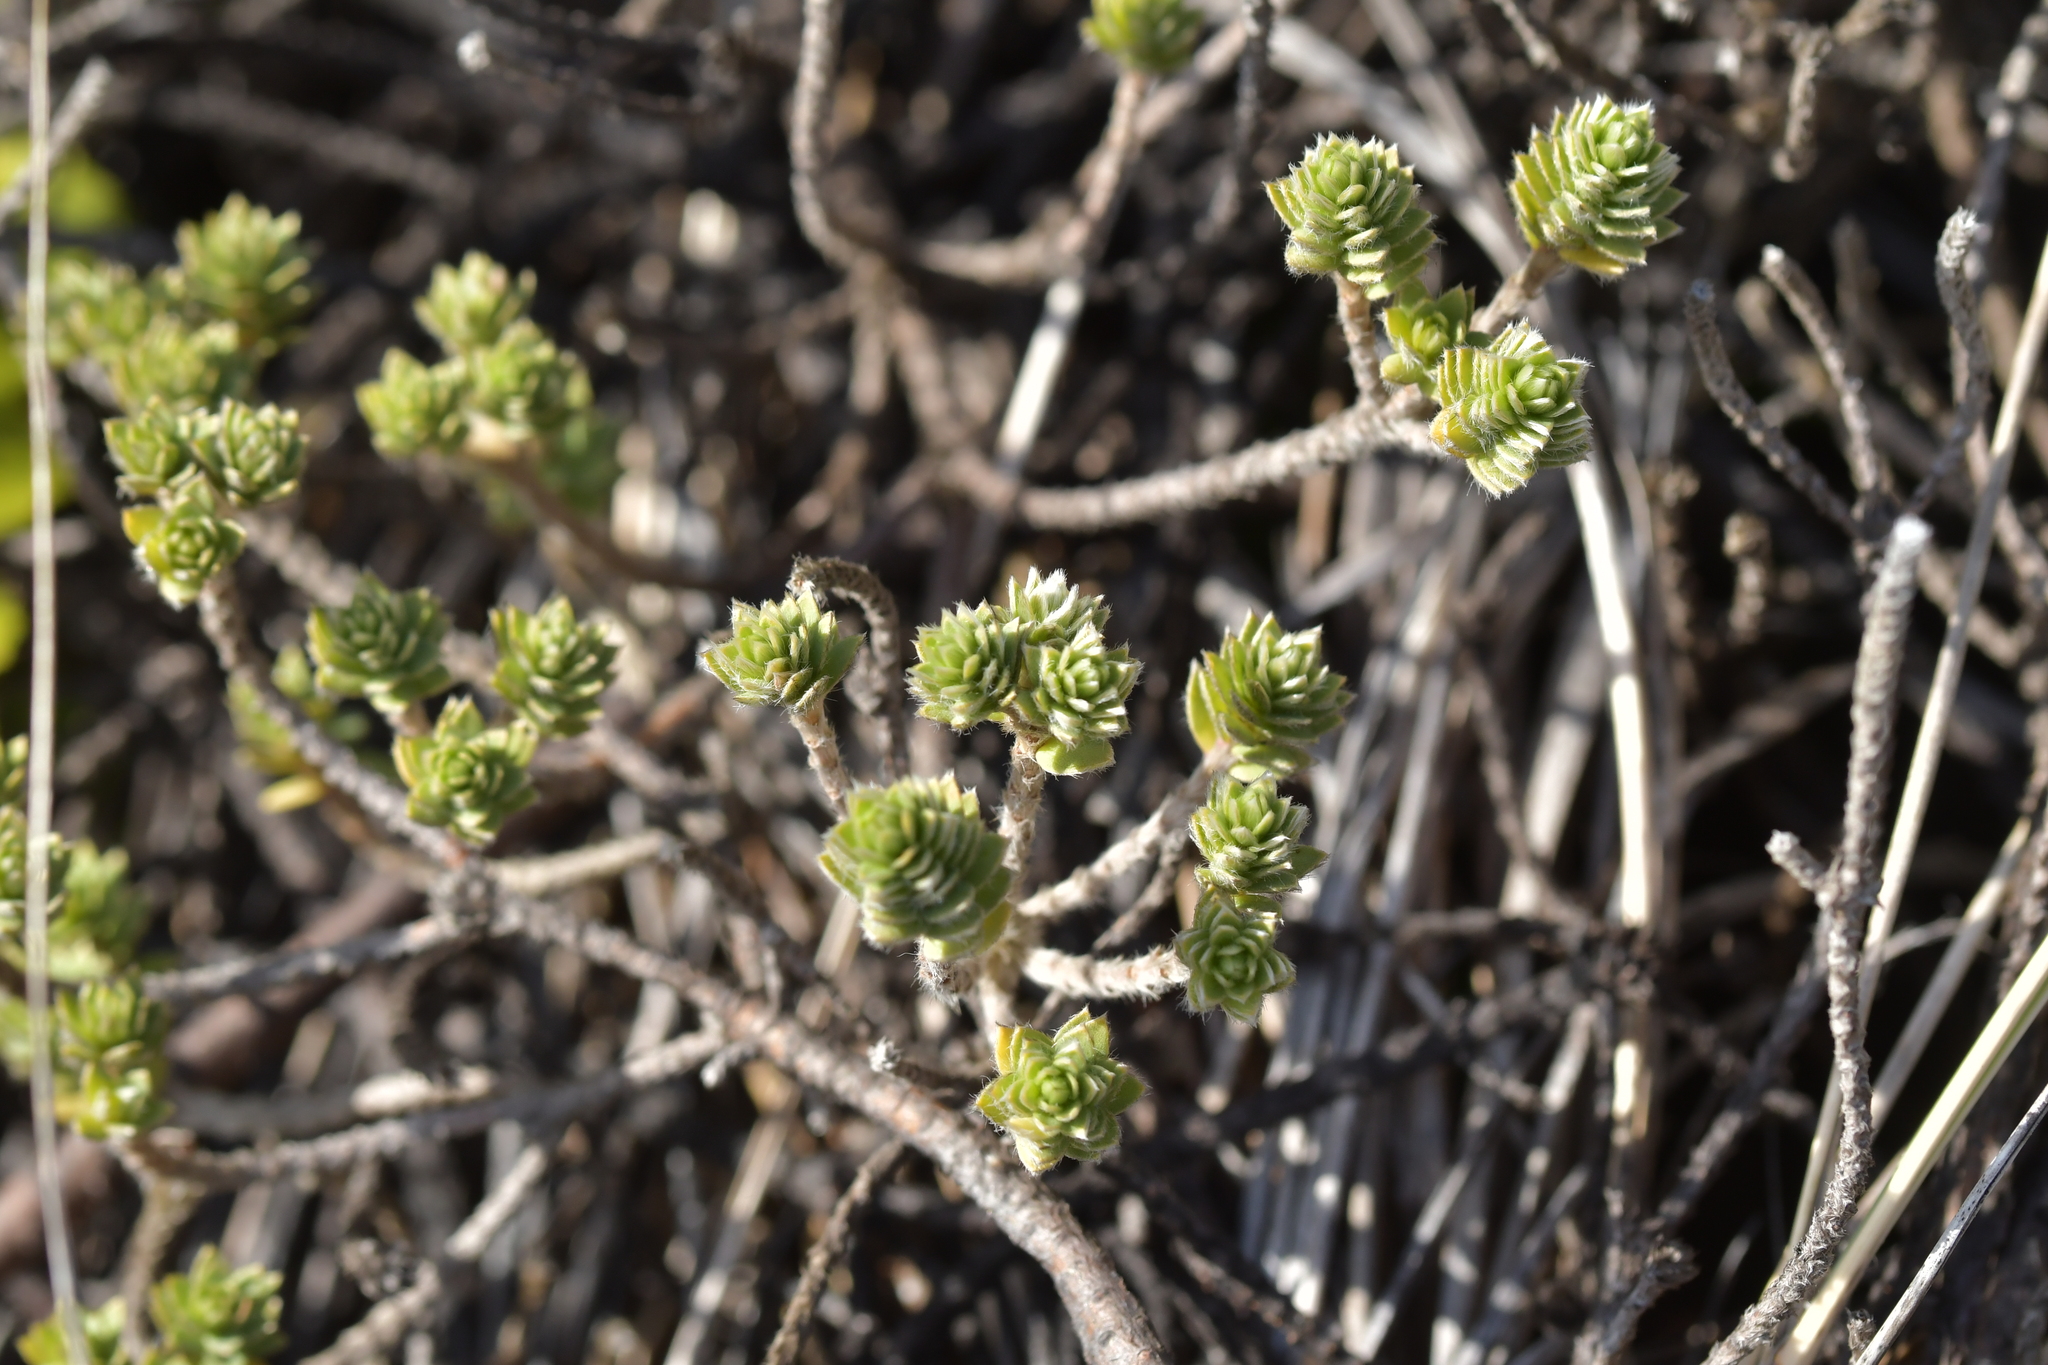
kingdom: Plantae
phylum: Tracheophyta
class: Magnoliopsida
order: Malvales
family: Thymelaeaceae
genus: Pimelea
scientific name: Pimelea villosa
